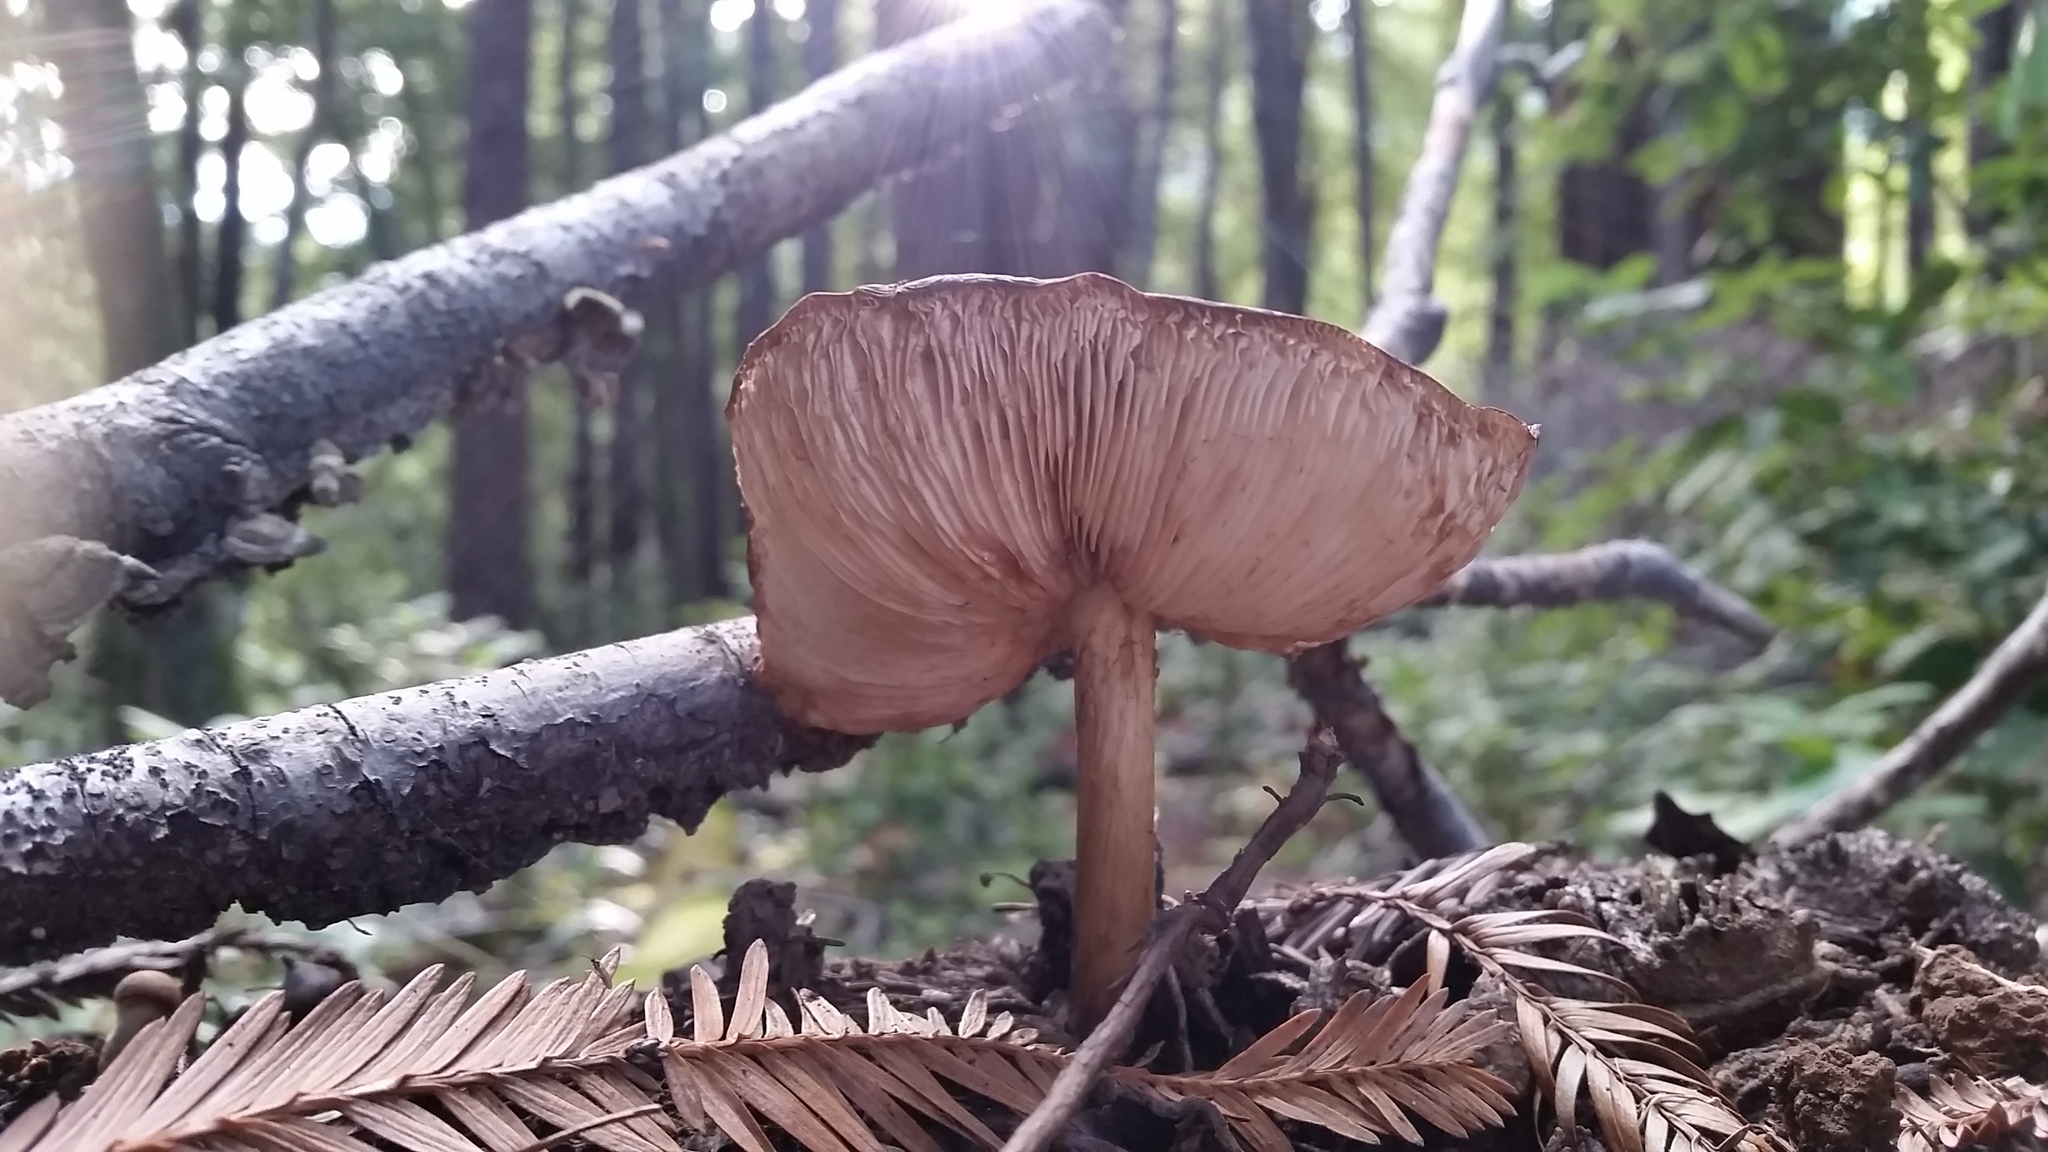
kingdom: Fungi
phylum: Basidiomycota
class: Agaricomycetes
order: Agaricales
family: Pluteaceae
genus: Pluteus
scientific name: Pluteus exilis
